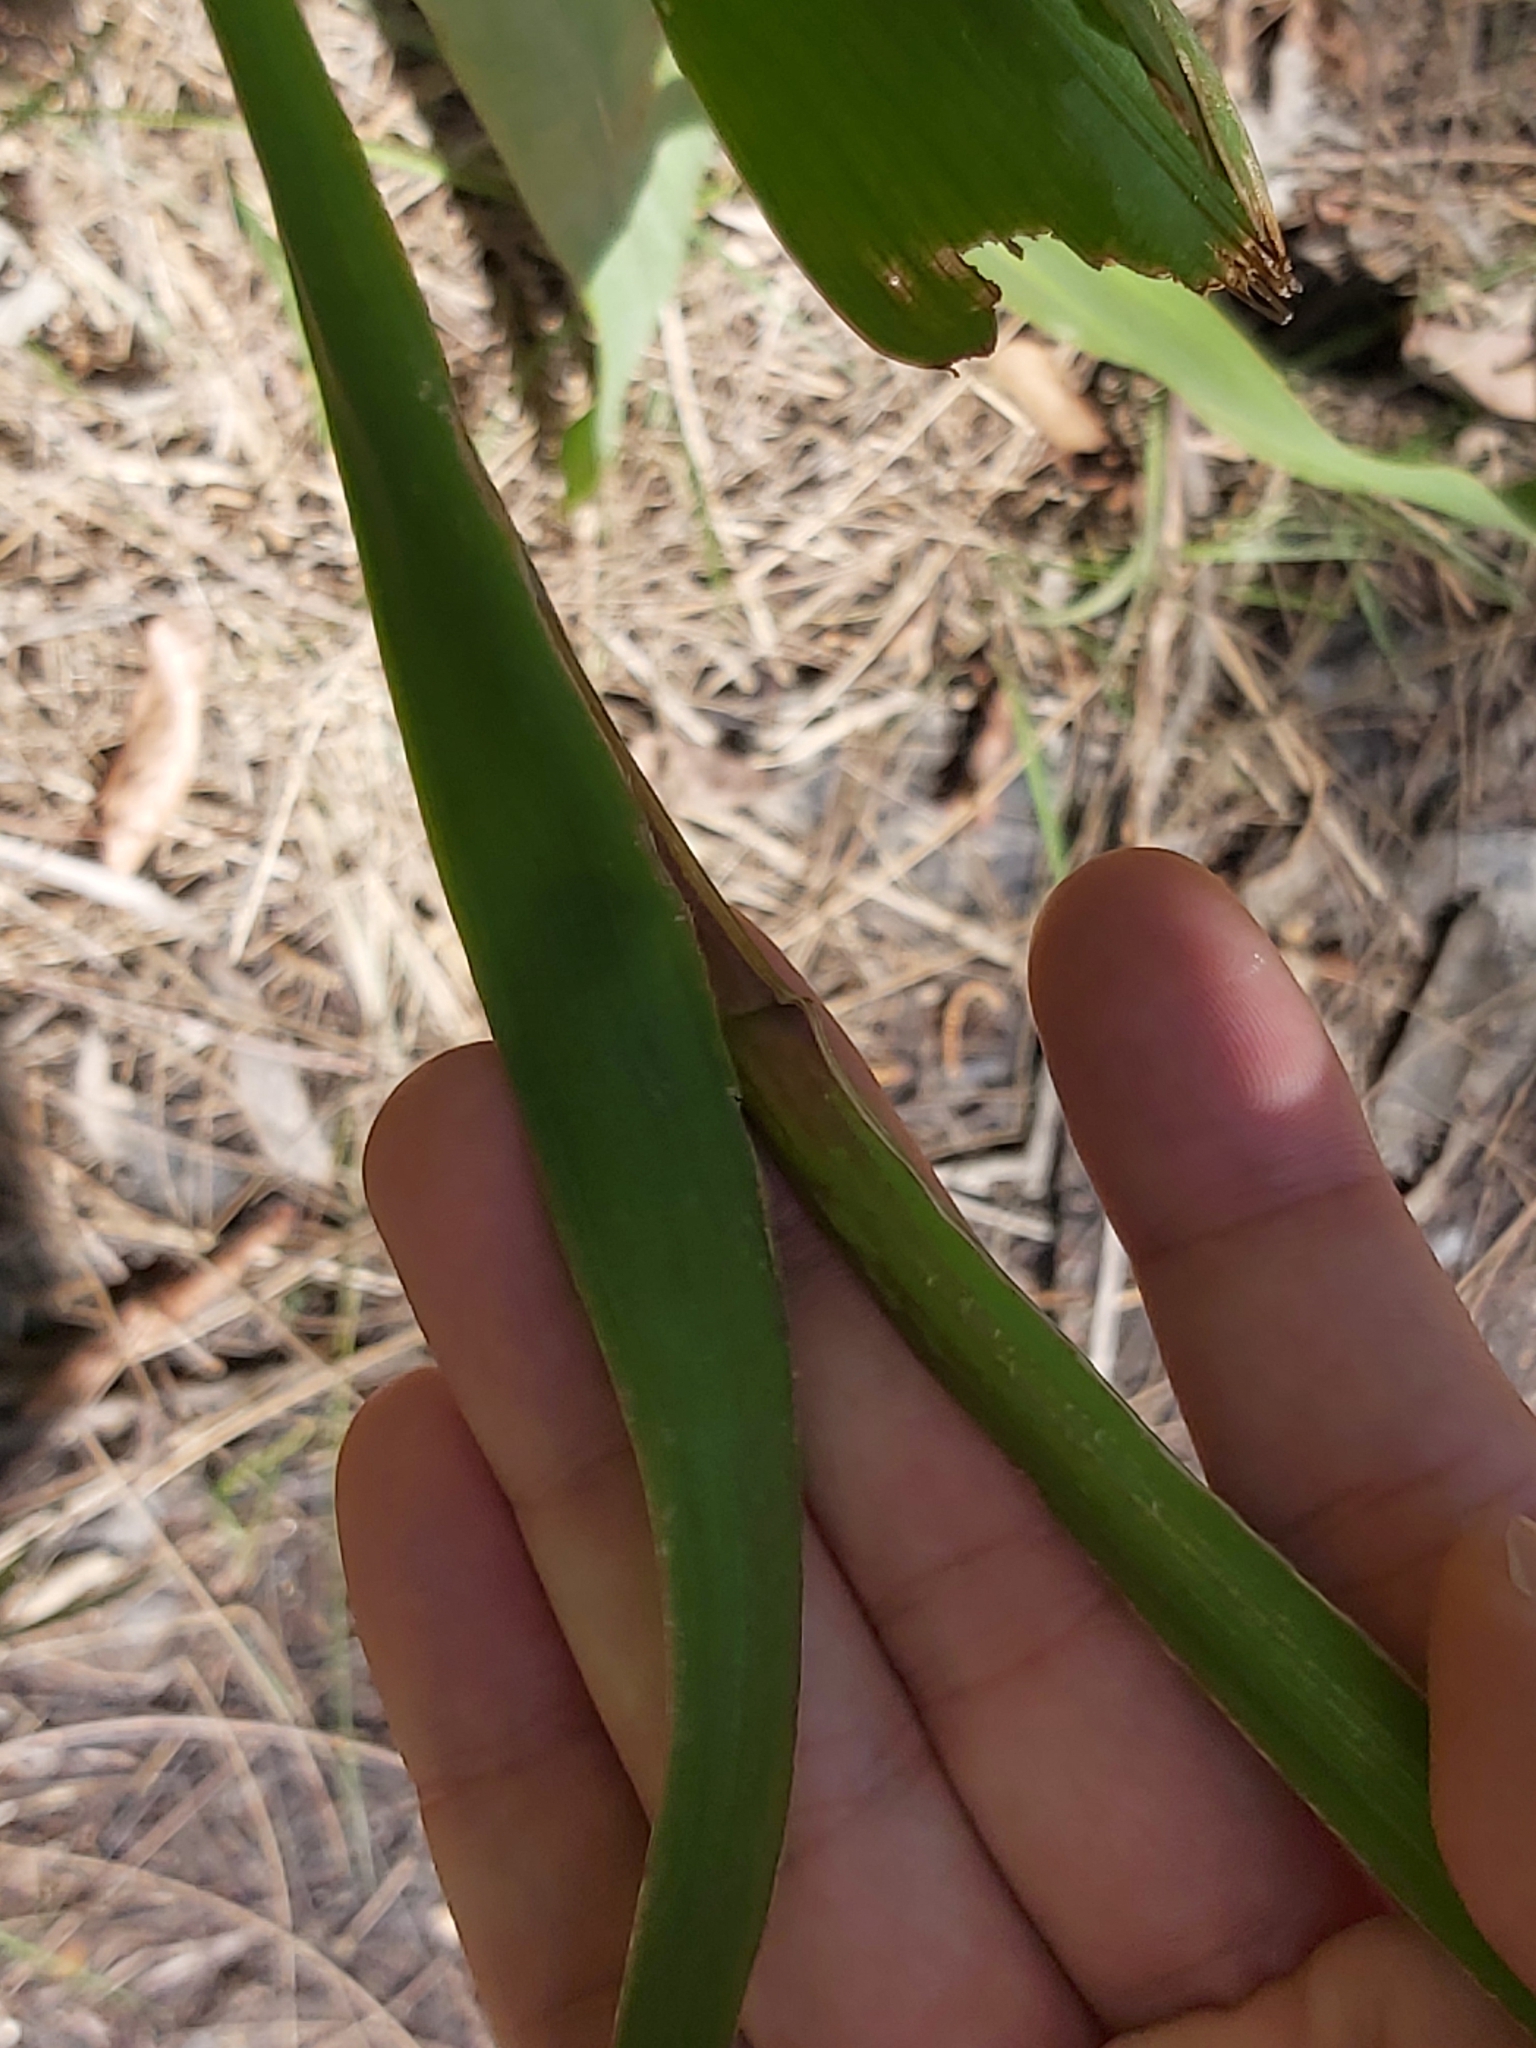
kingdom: Plantae
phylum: Tracheophyta
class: Liliopsida
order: Asparagales
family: Iridaceae
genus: Watsonia
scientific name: Watsonia meriana
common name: Bulbil bugle-lily
